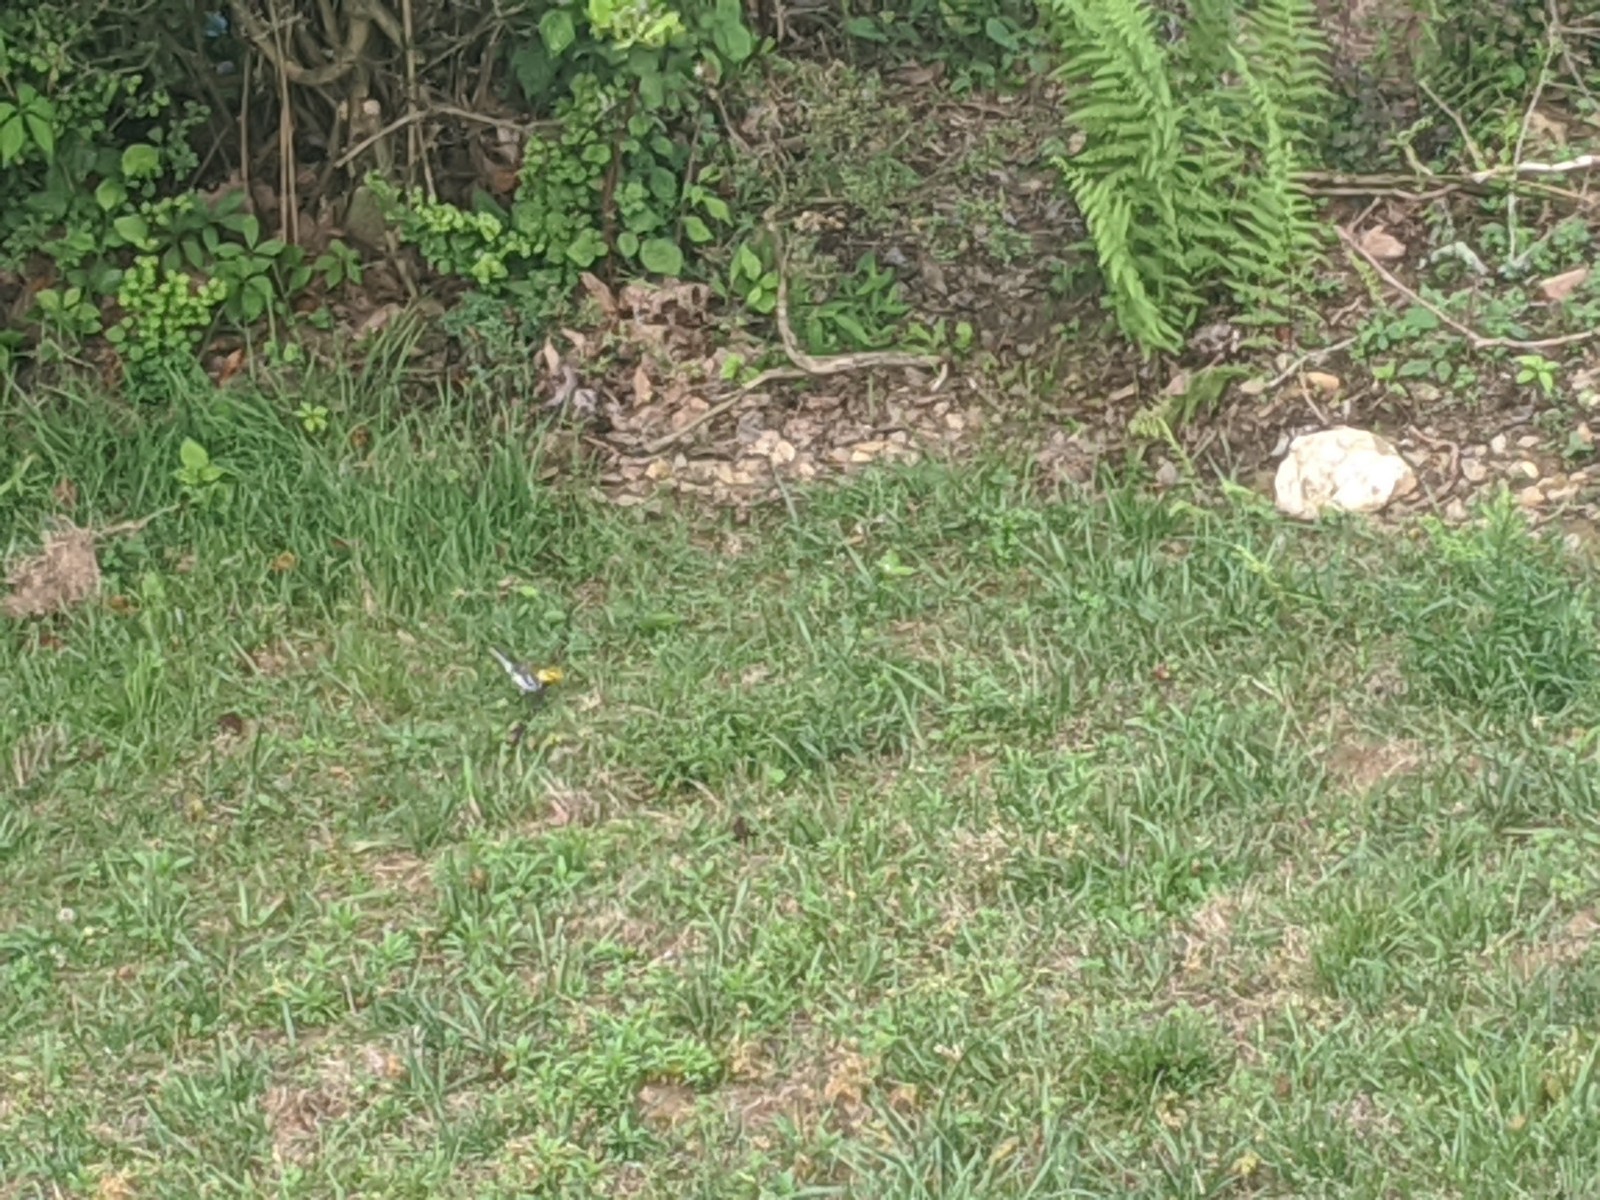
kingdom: Animalia
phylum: Chordata
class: Aves
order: Passeriformes
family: Parulidae
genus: Setophaga
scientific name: Setophaga virens
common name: Black-throated green warbler
